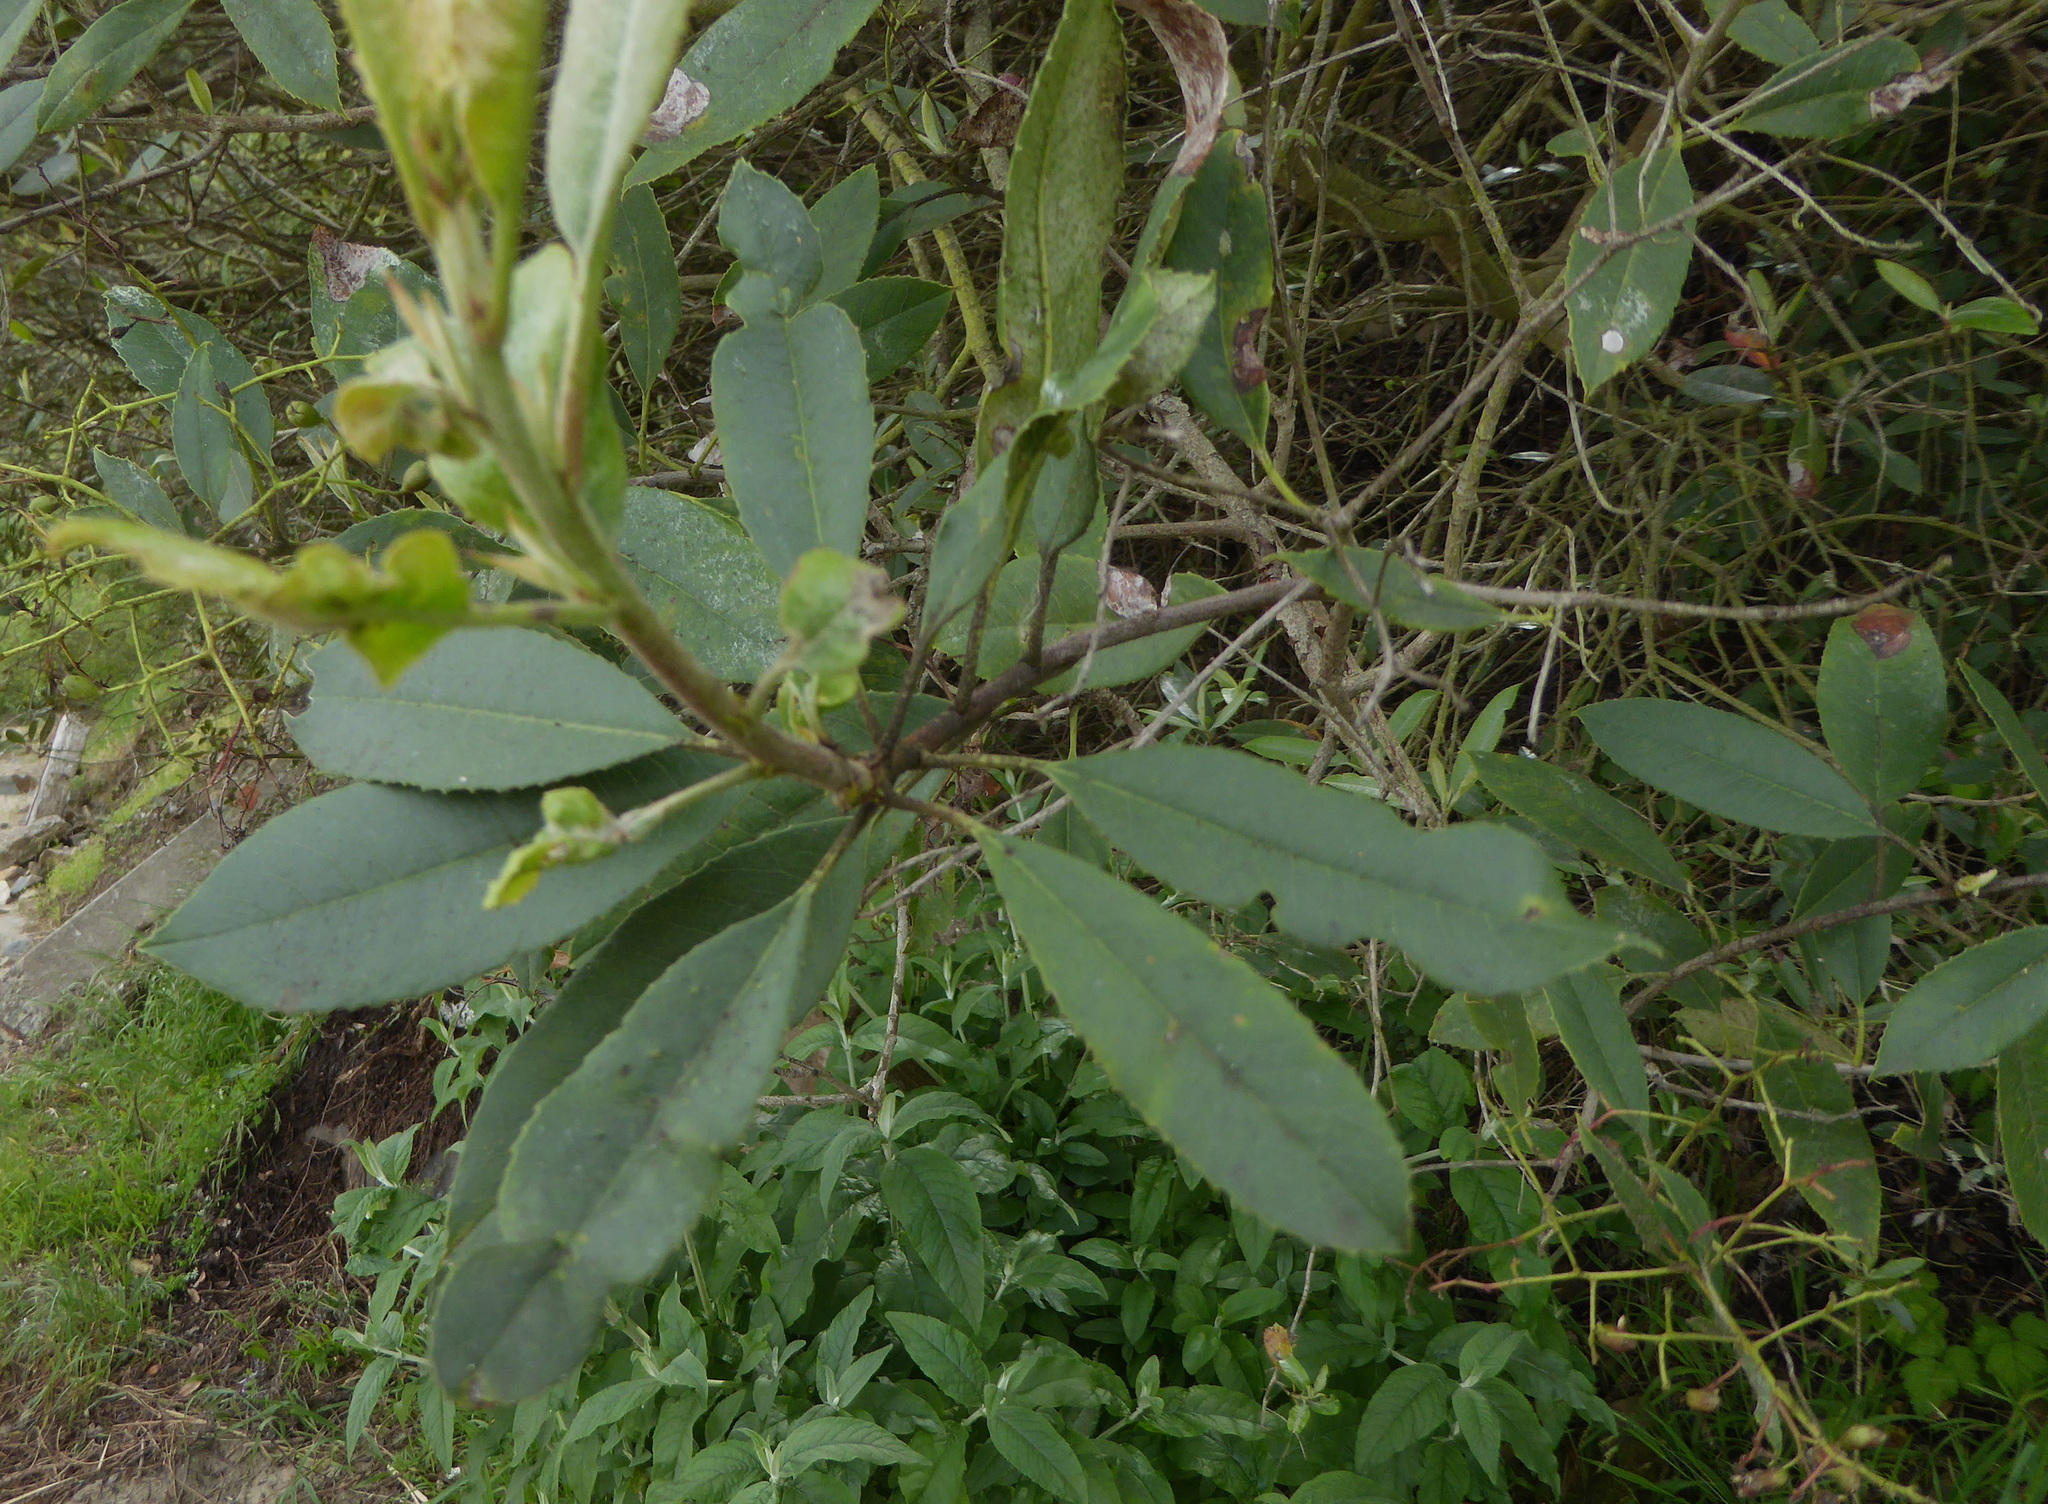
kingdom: Plantae
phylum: Tracheophyta
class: Magnoliopsida
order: Rosales
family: Rosaceae
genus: Heteromeles
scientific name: Heteromeles arbutifolia
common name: California-holly
